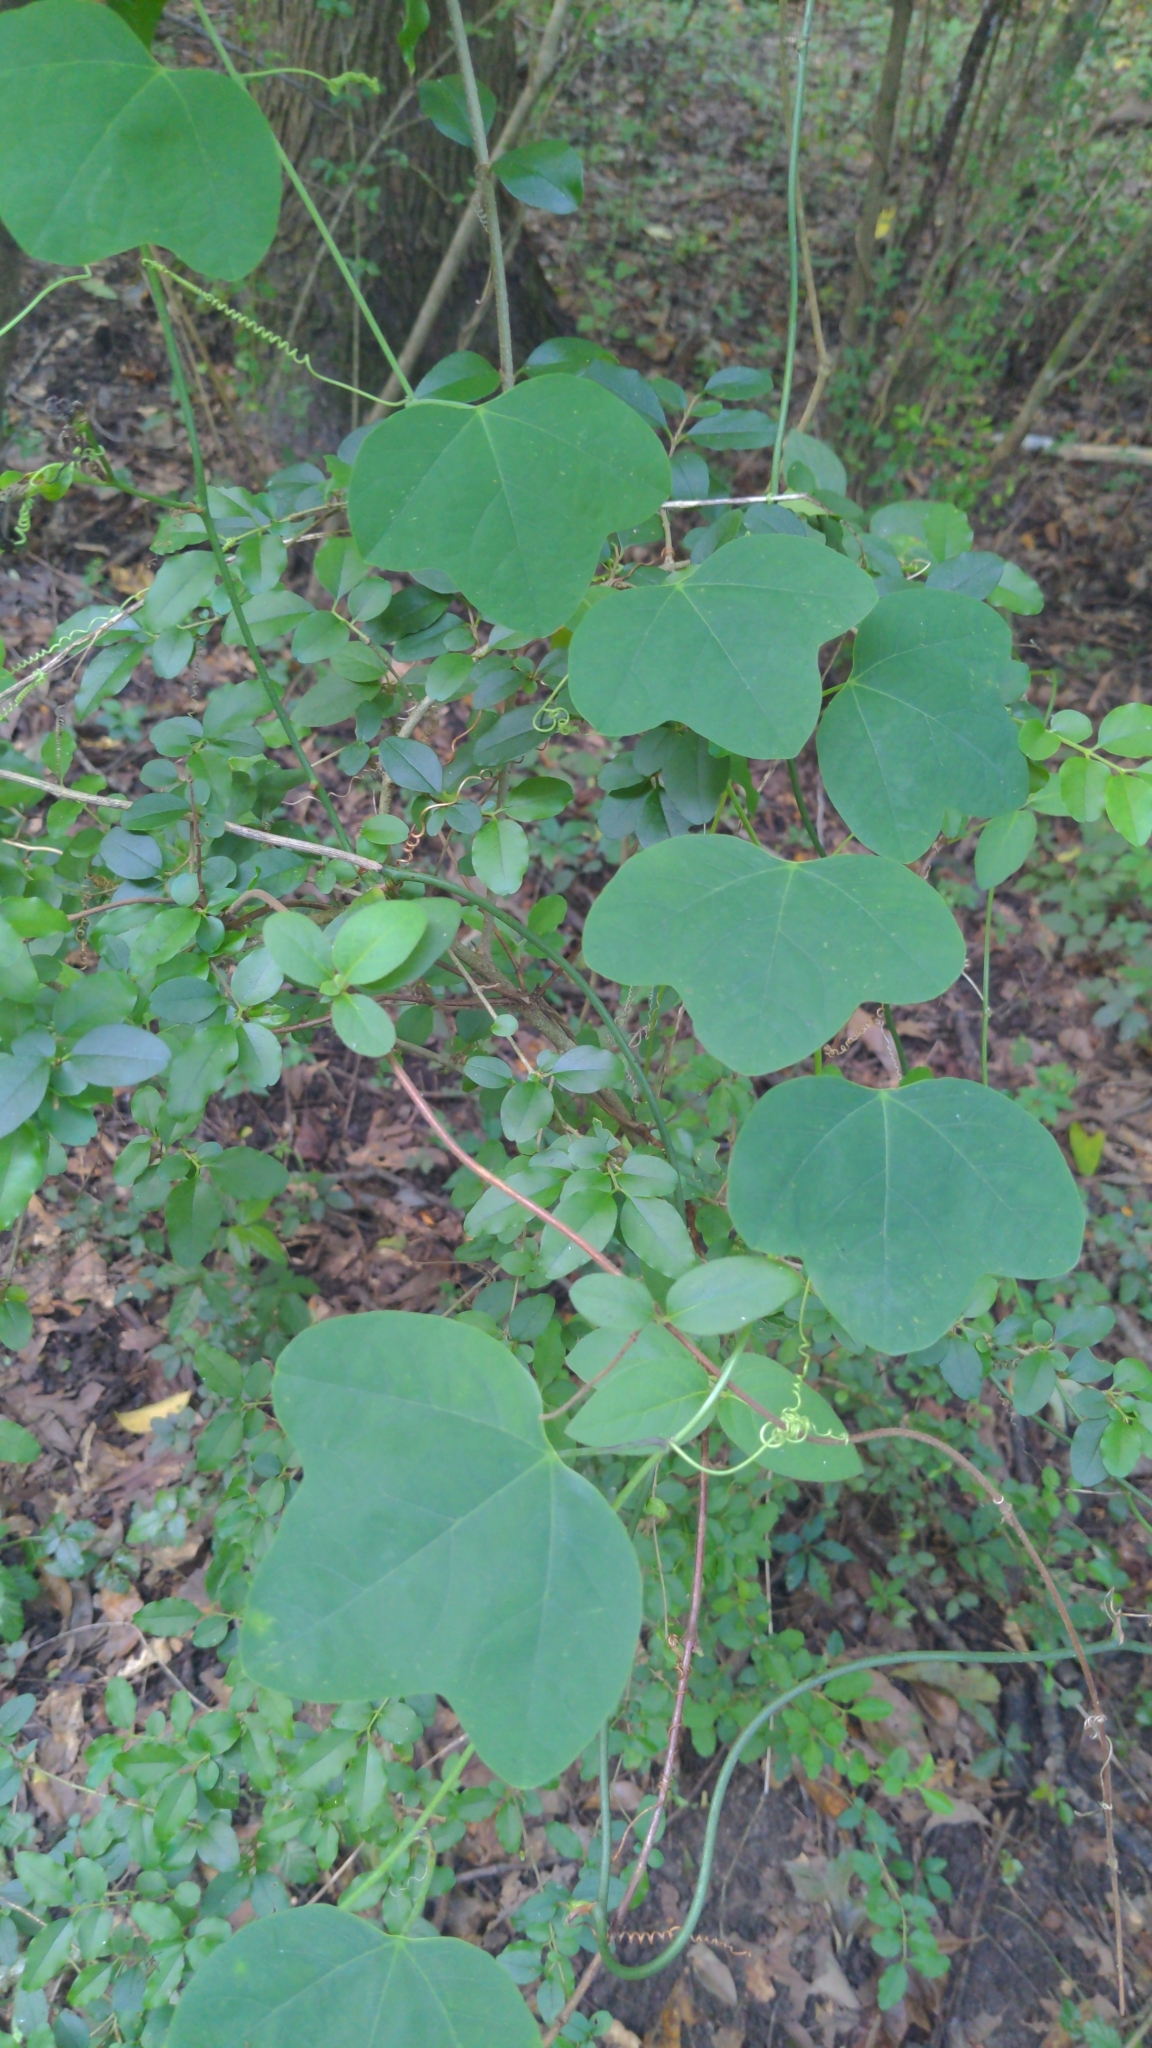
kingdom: Plantae
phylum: Tracheophyta
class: Magnoliopsida
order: Malpighiales
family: Passifloraceae
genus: Passiflora
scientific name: Passiflora lutea
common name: Yellow passionflower
